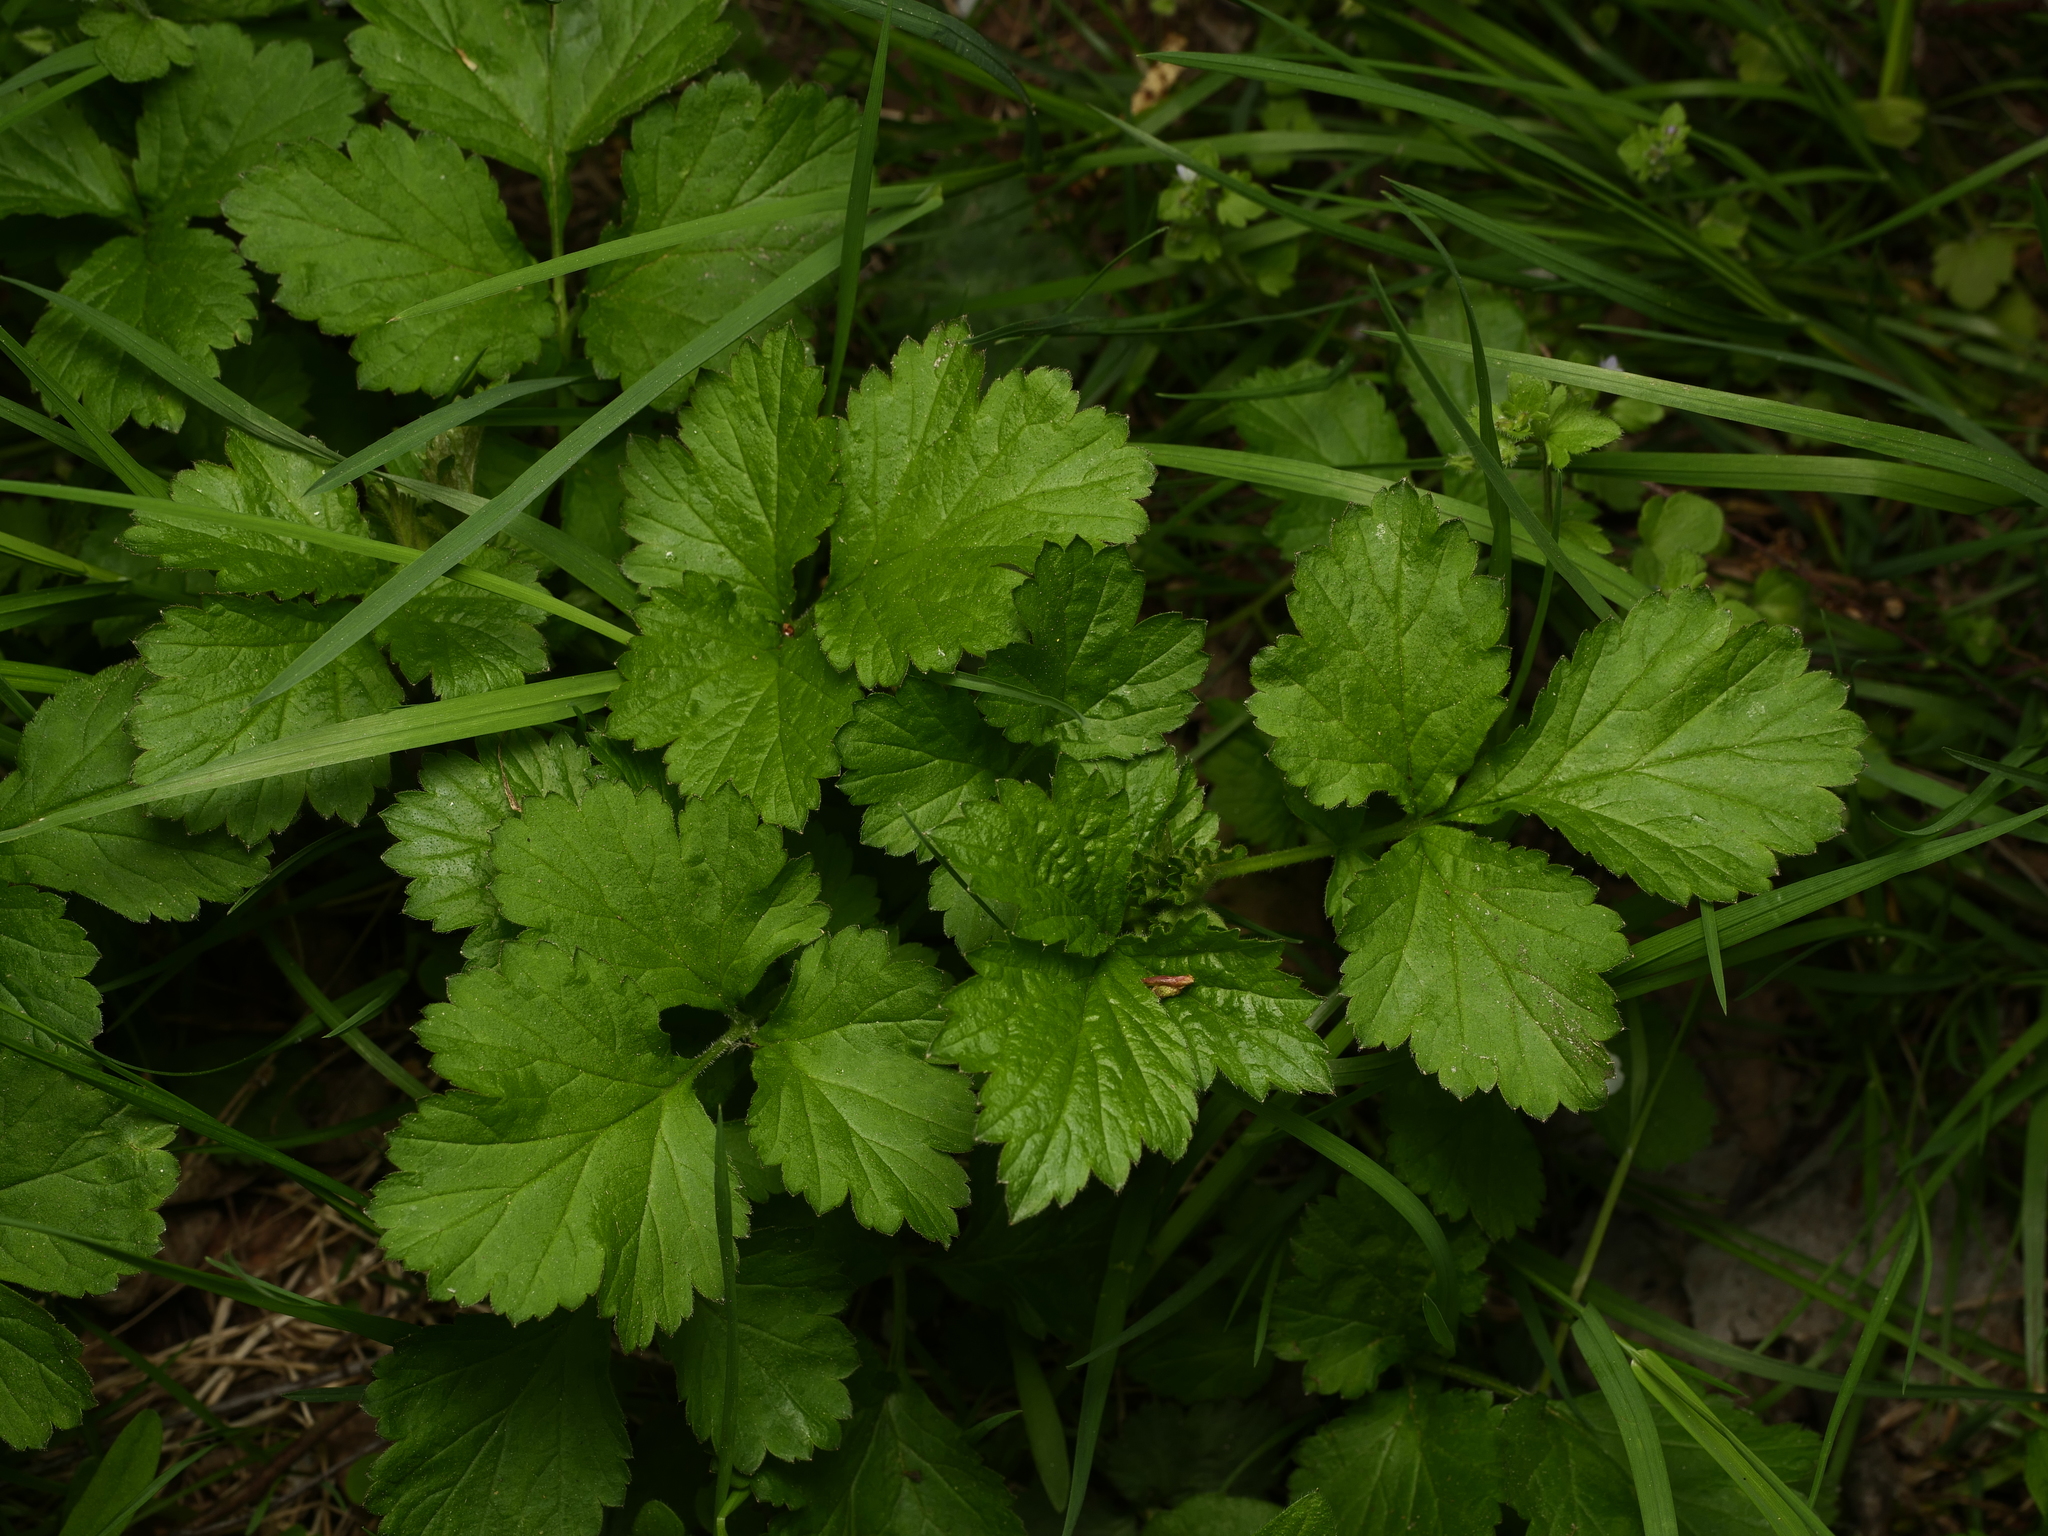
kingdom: Plantae
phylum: Tracheophyta
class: Magnoliopsida
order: Rosales
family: Rosaceae
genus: Geum
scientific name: Geum urbanum
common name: Wood avens
